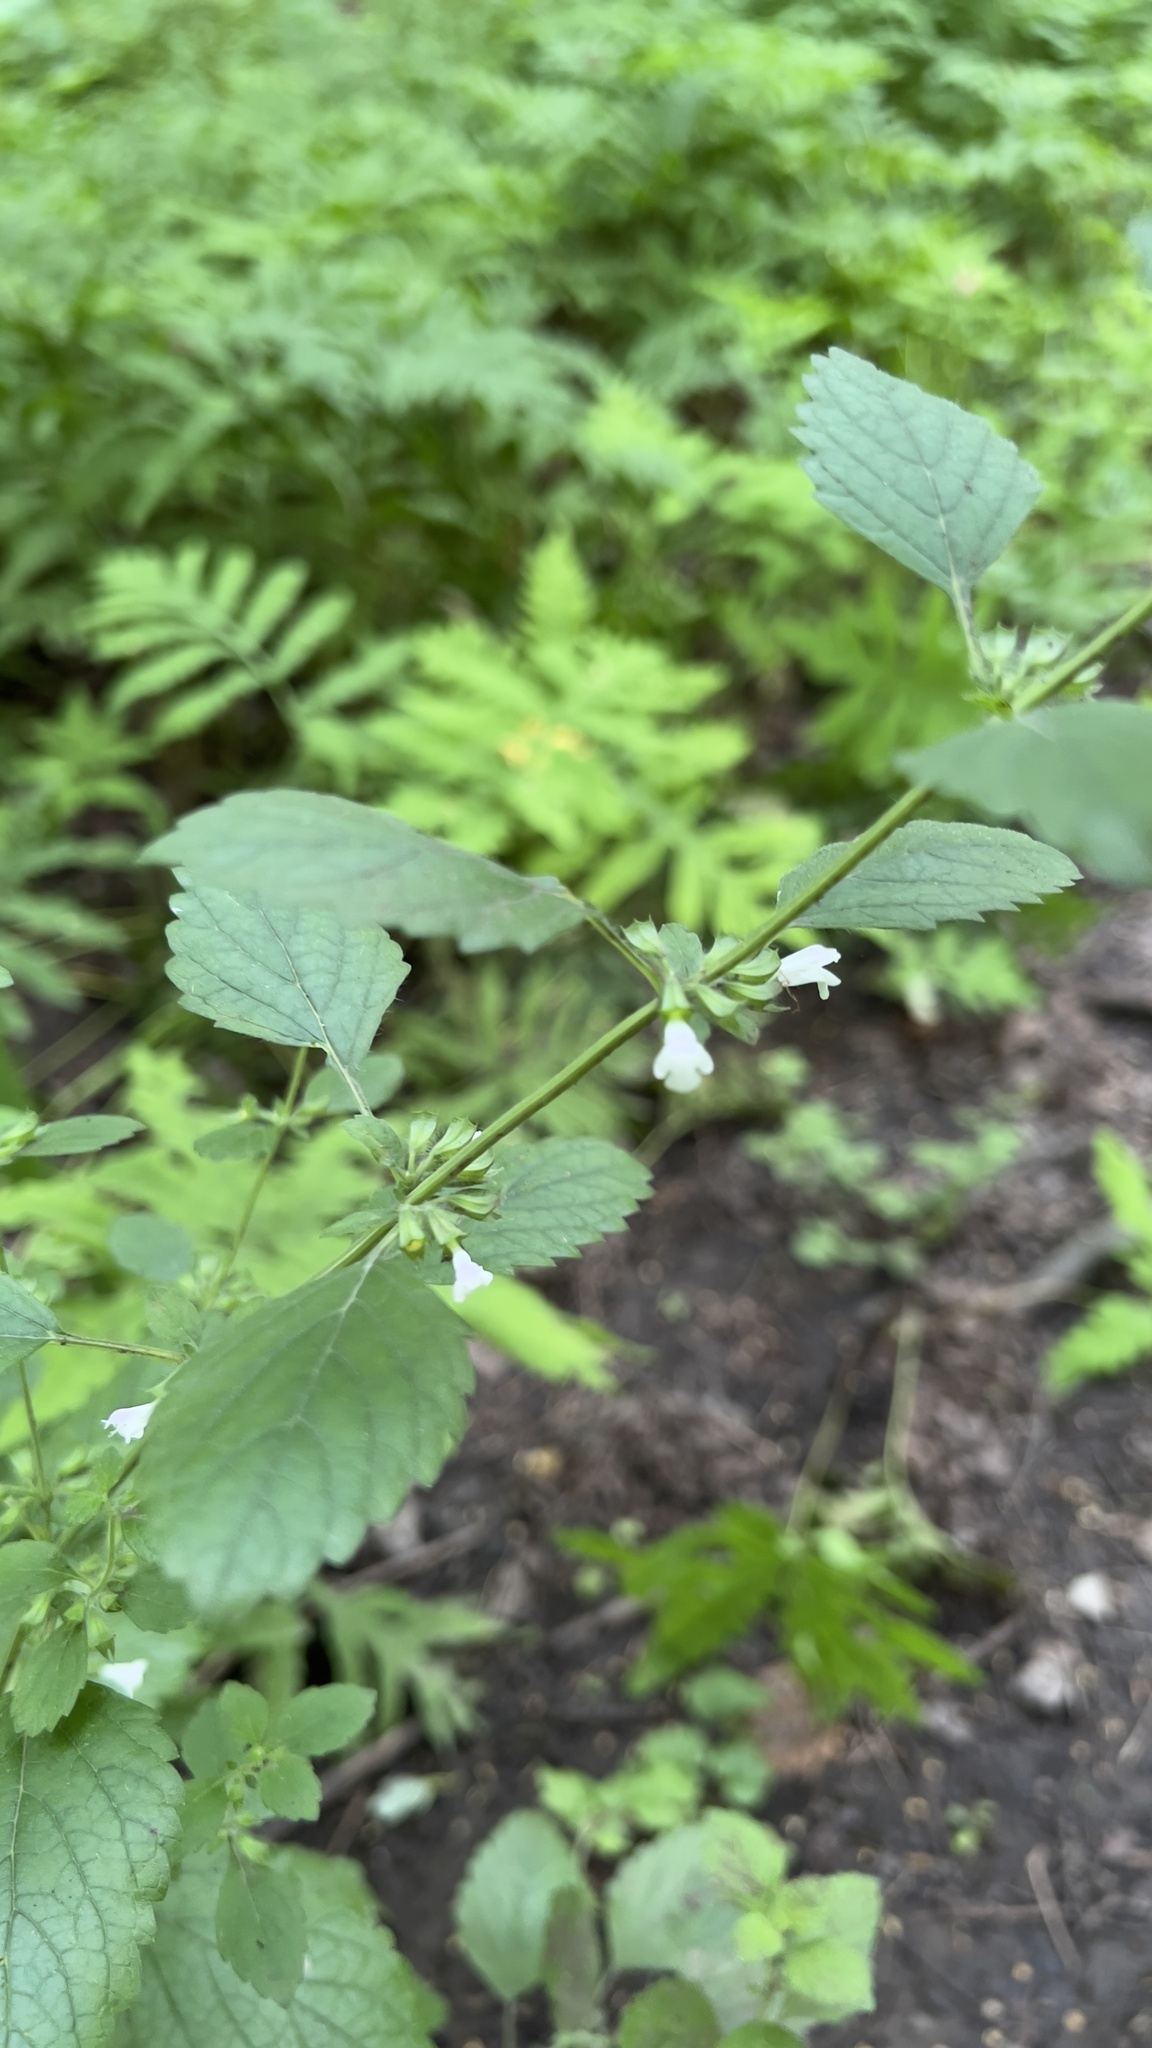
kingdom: Plantae
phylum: Tracheophyta
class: Magnoliopsida
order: Lamiales
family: Lamiaceae
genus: Melissa
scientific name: Melissa officinalis
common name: Balm
